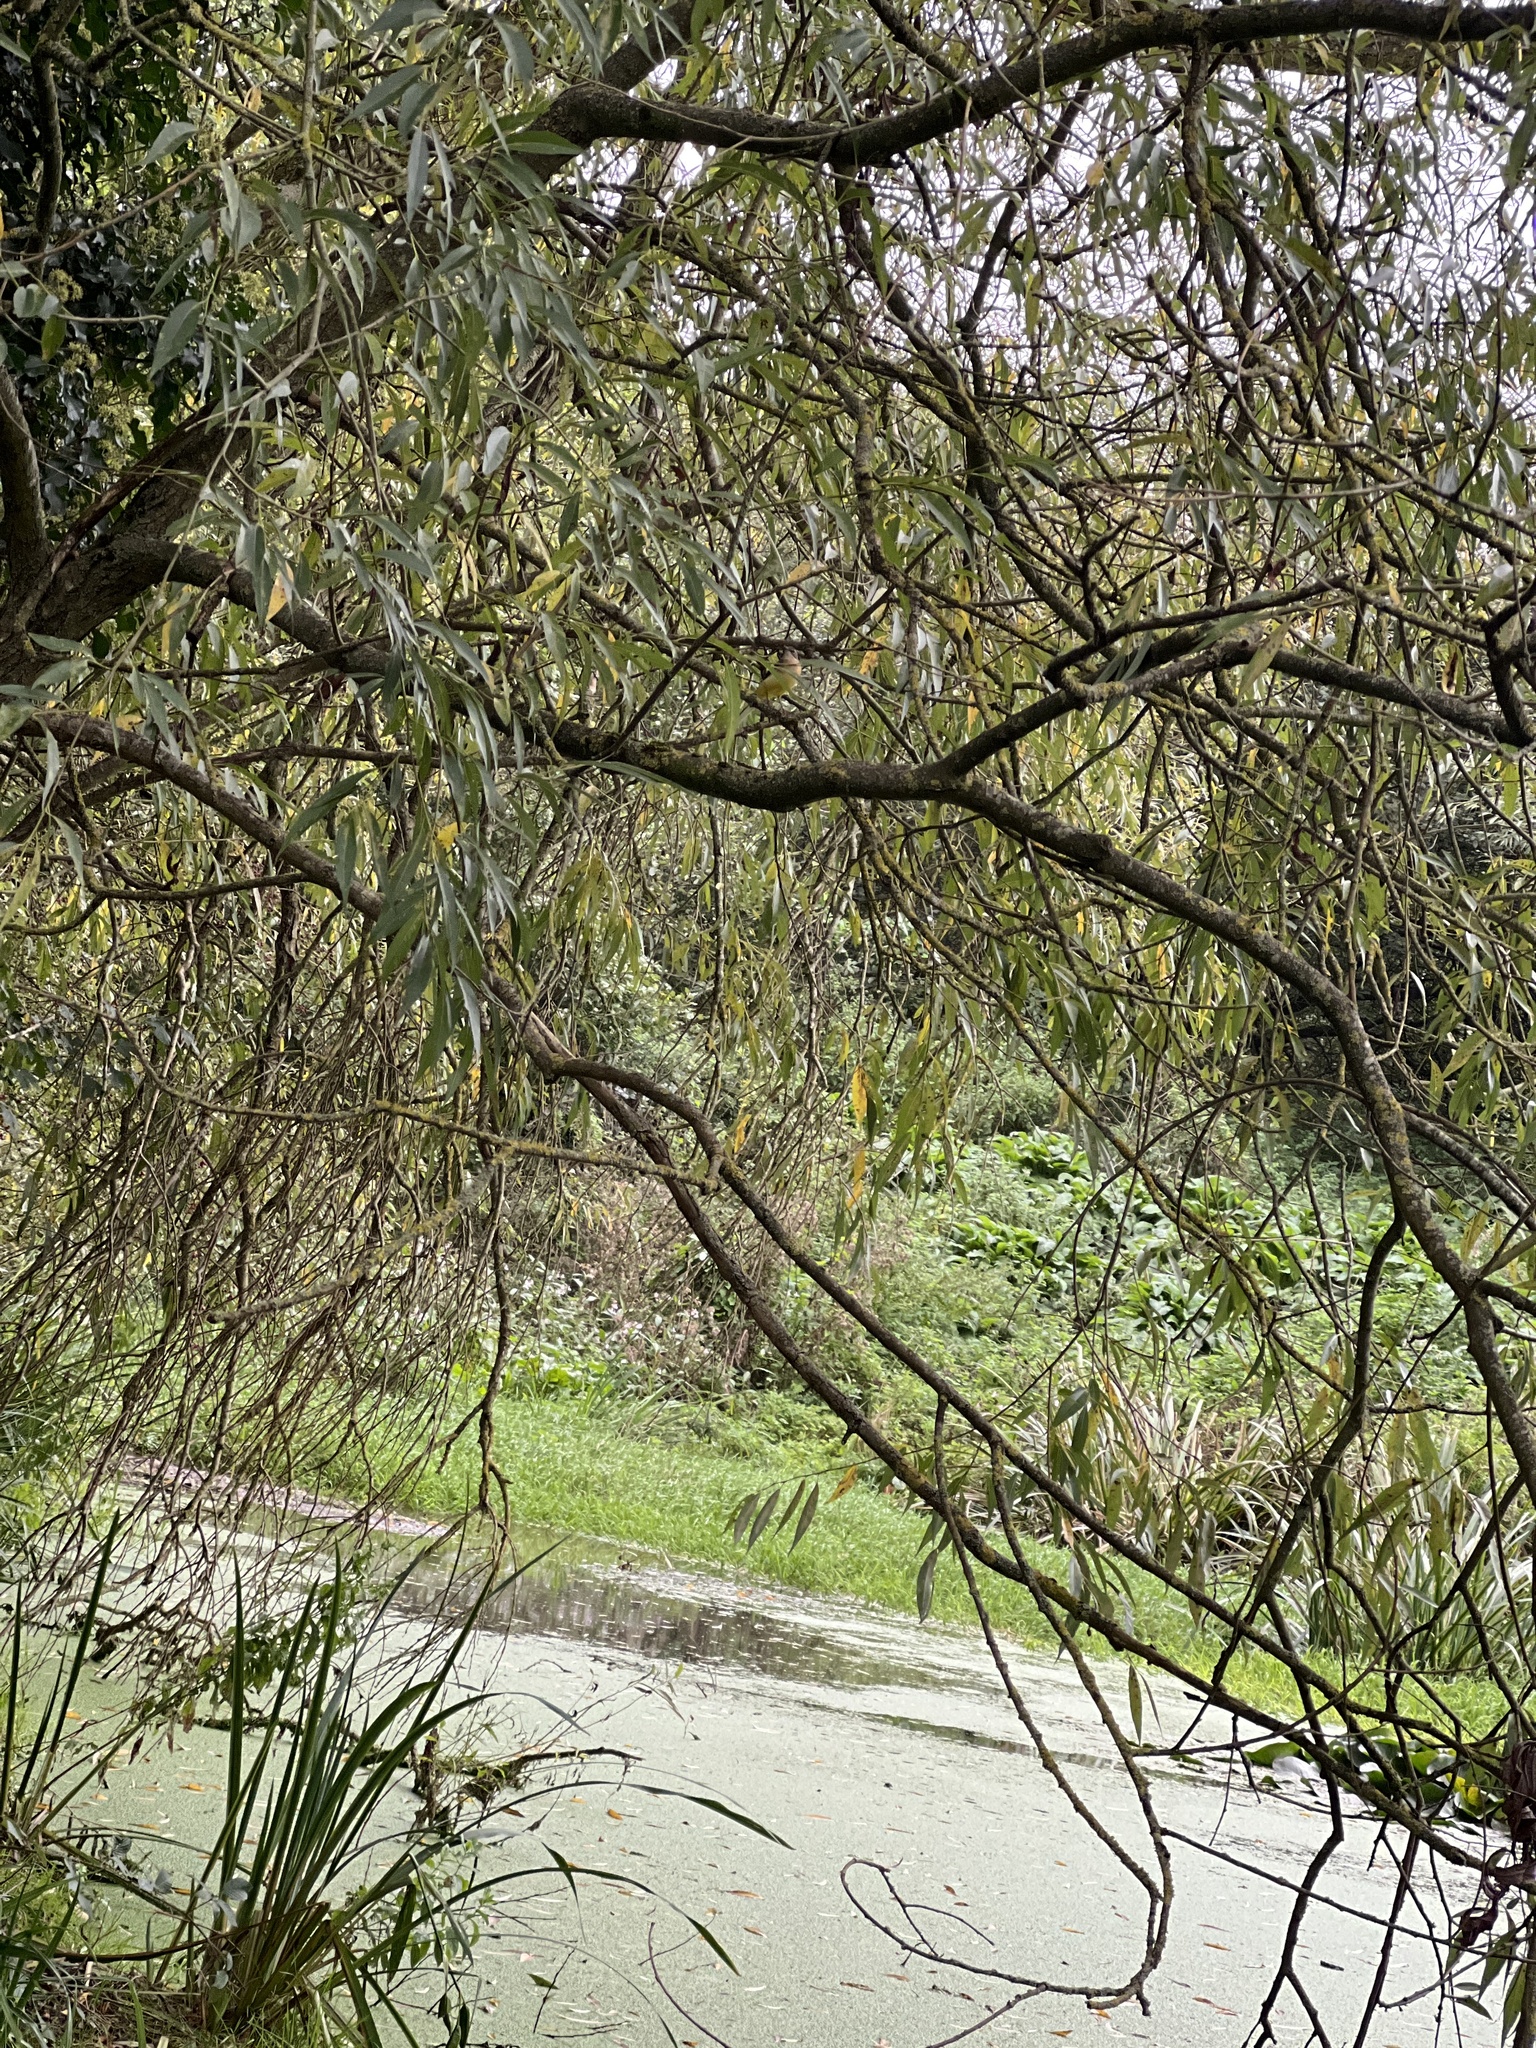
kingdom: Animalia
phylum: Chordata
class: Aves
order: Passeriformes
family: Motacillidae
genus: Motacilla
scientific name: Motacilla cinerea
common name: Grey wagtail
